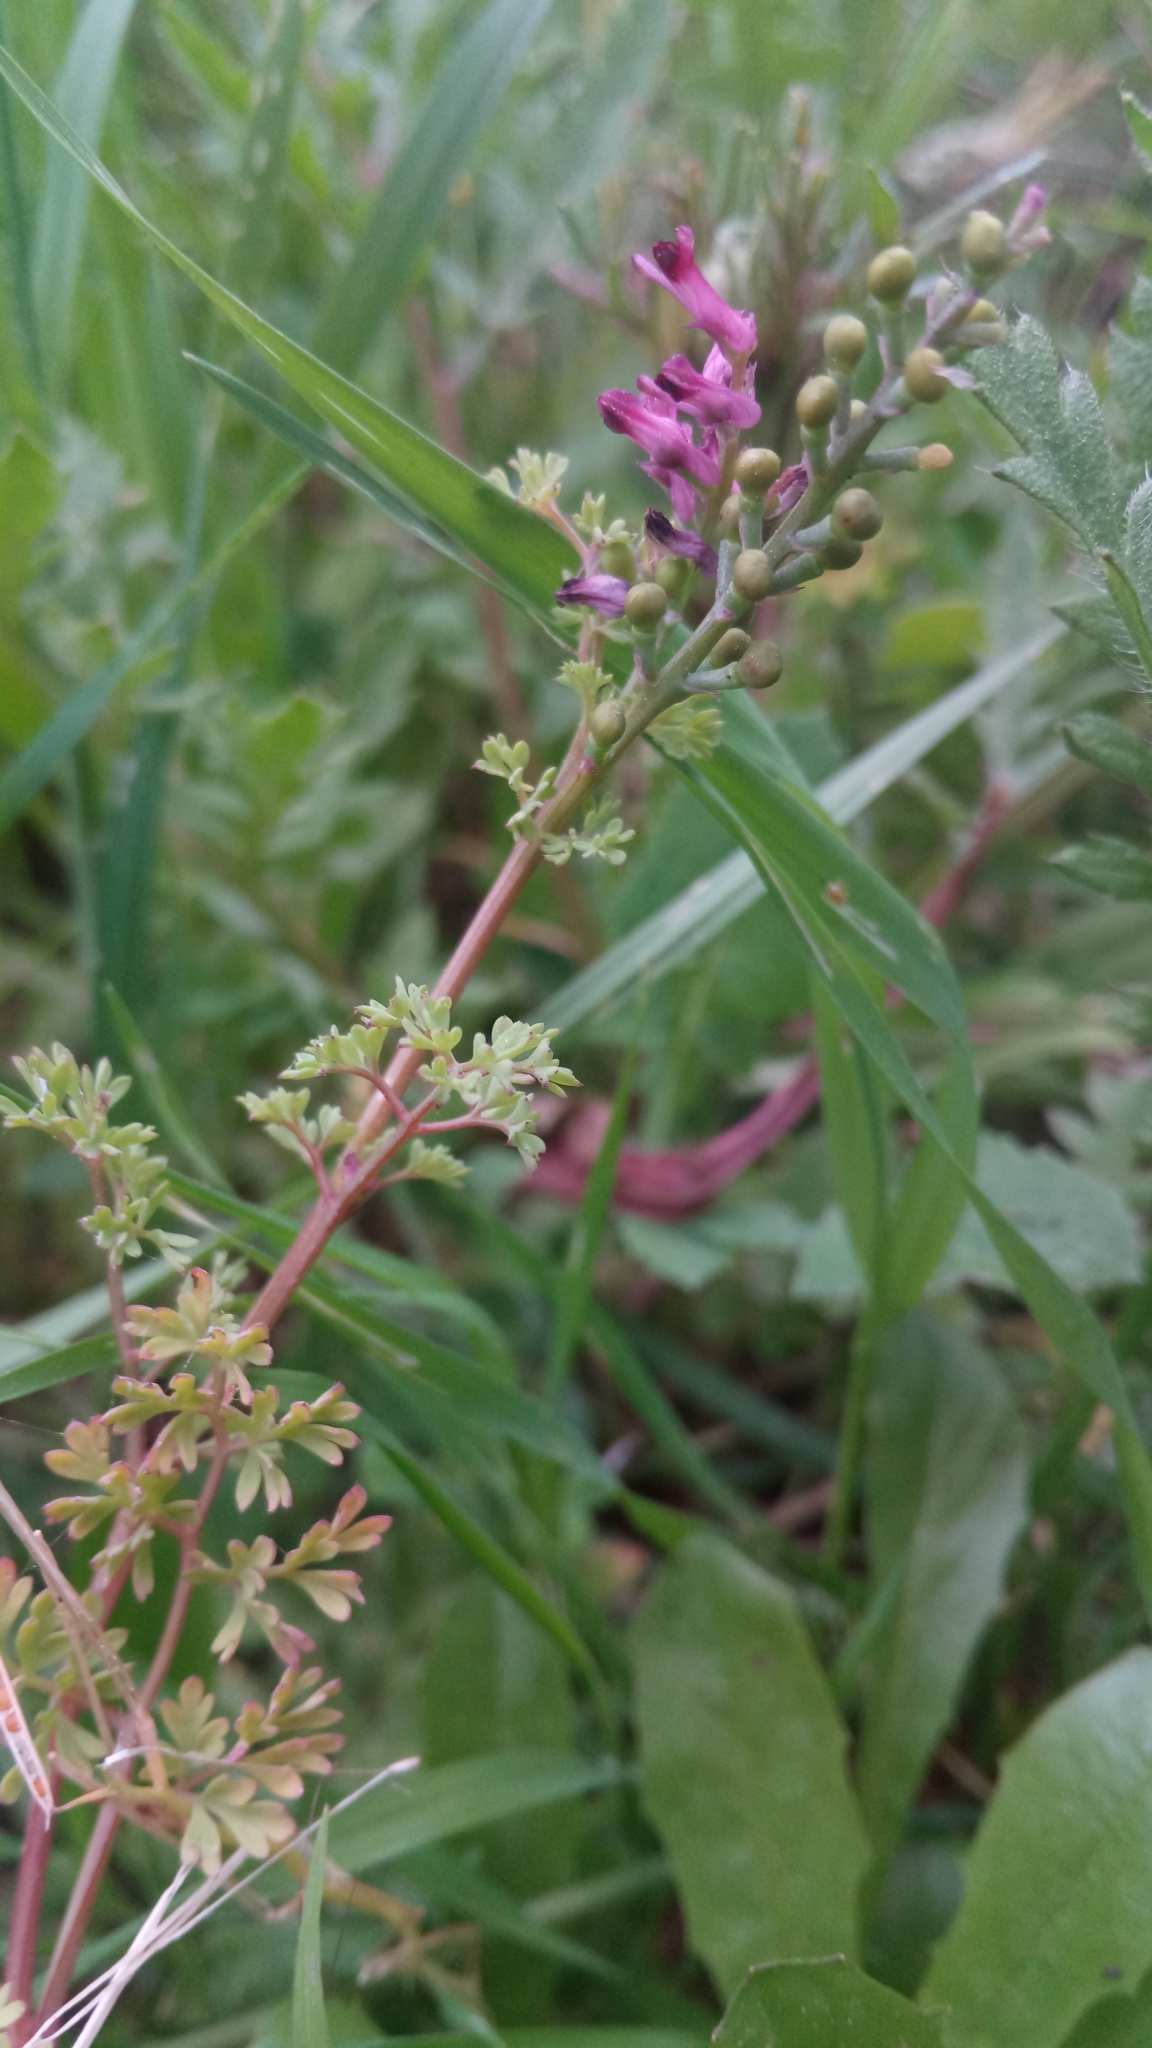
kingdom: Plantae
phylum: Tracheophyta
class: Magnoliopsida
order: Ranunculales
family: Papaveraceae
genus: Fumaria
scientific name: Fumaria officinalis
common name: Common fumitory
